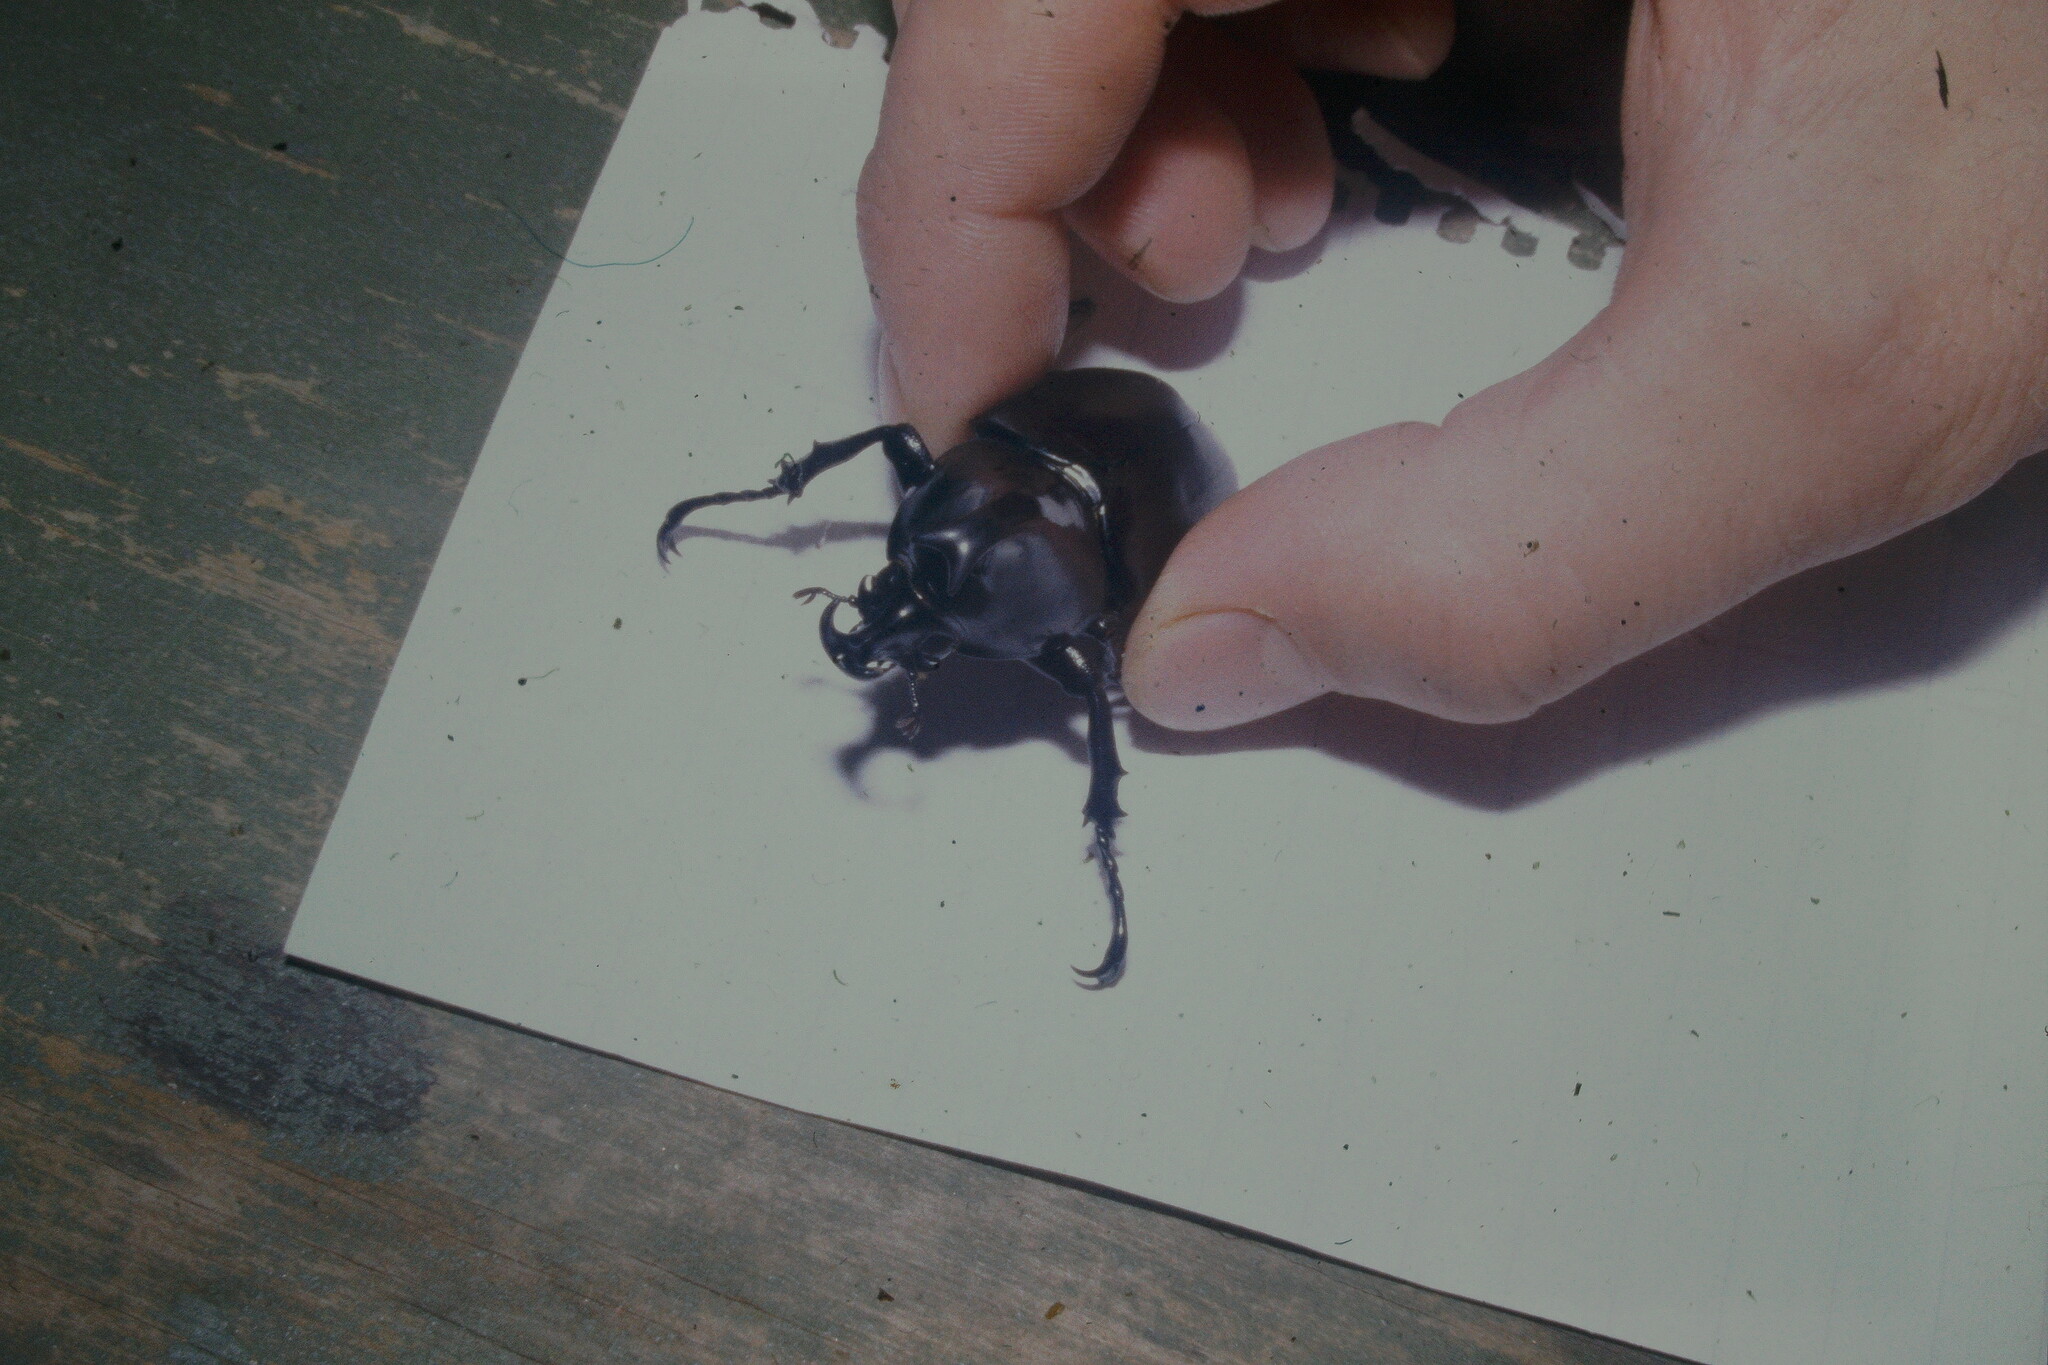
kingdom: Animalia
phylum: Arthropoda
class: Insecta
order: Coleoptera
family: Scarabaeidae
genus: Xylotrupes
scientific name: Xylotrupes australicus
